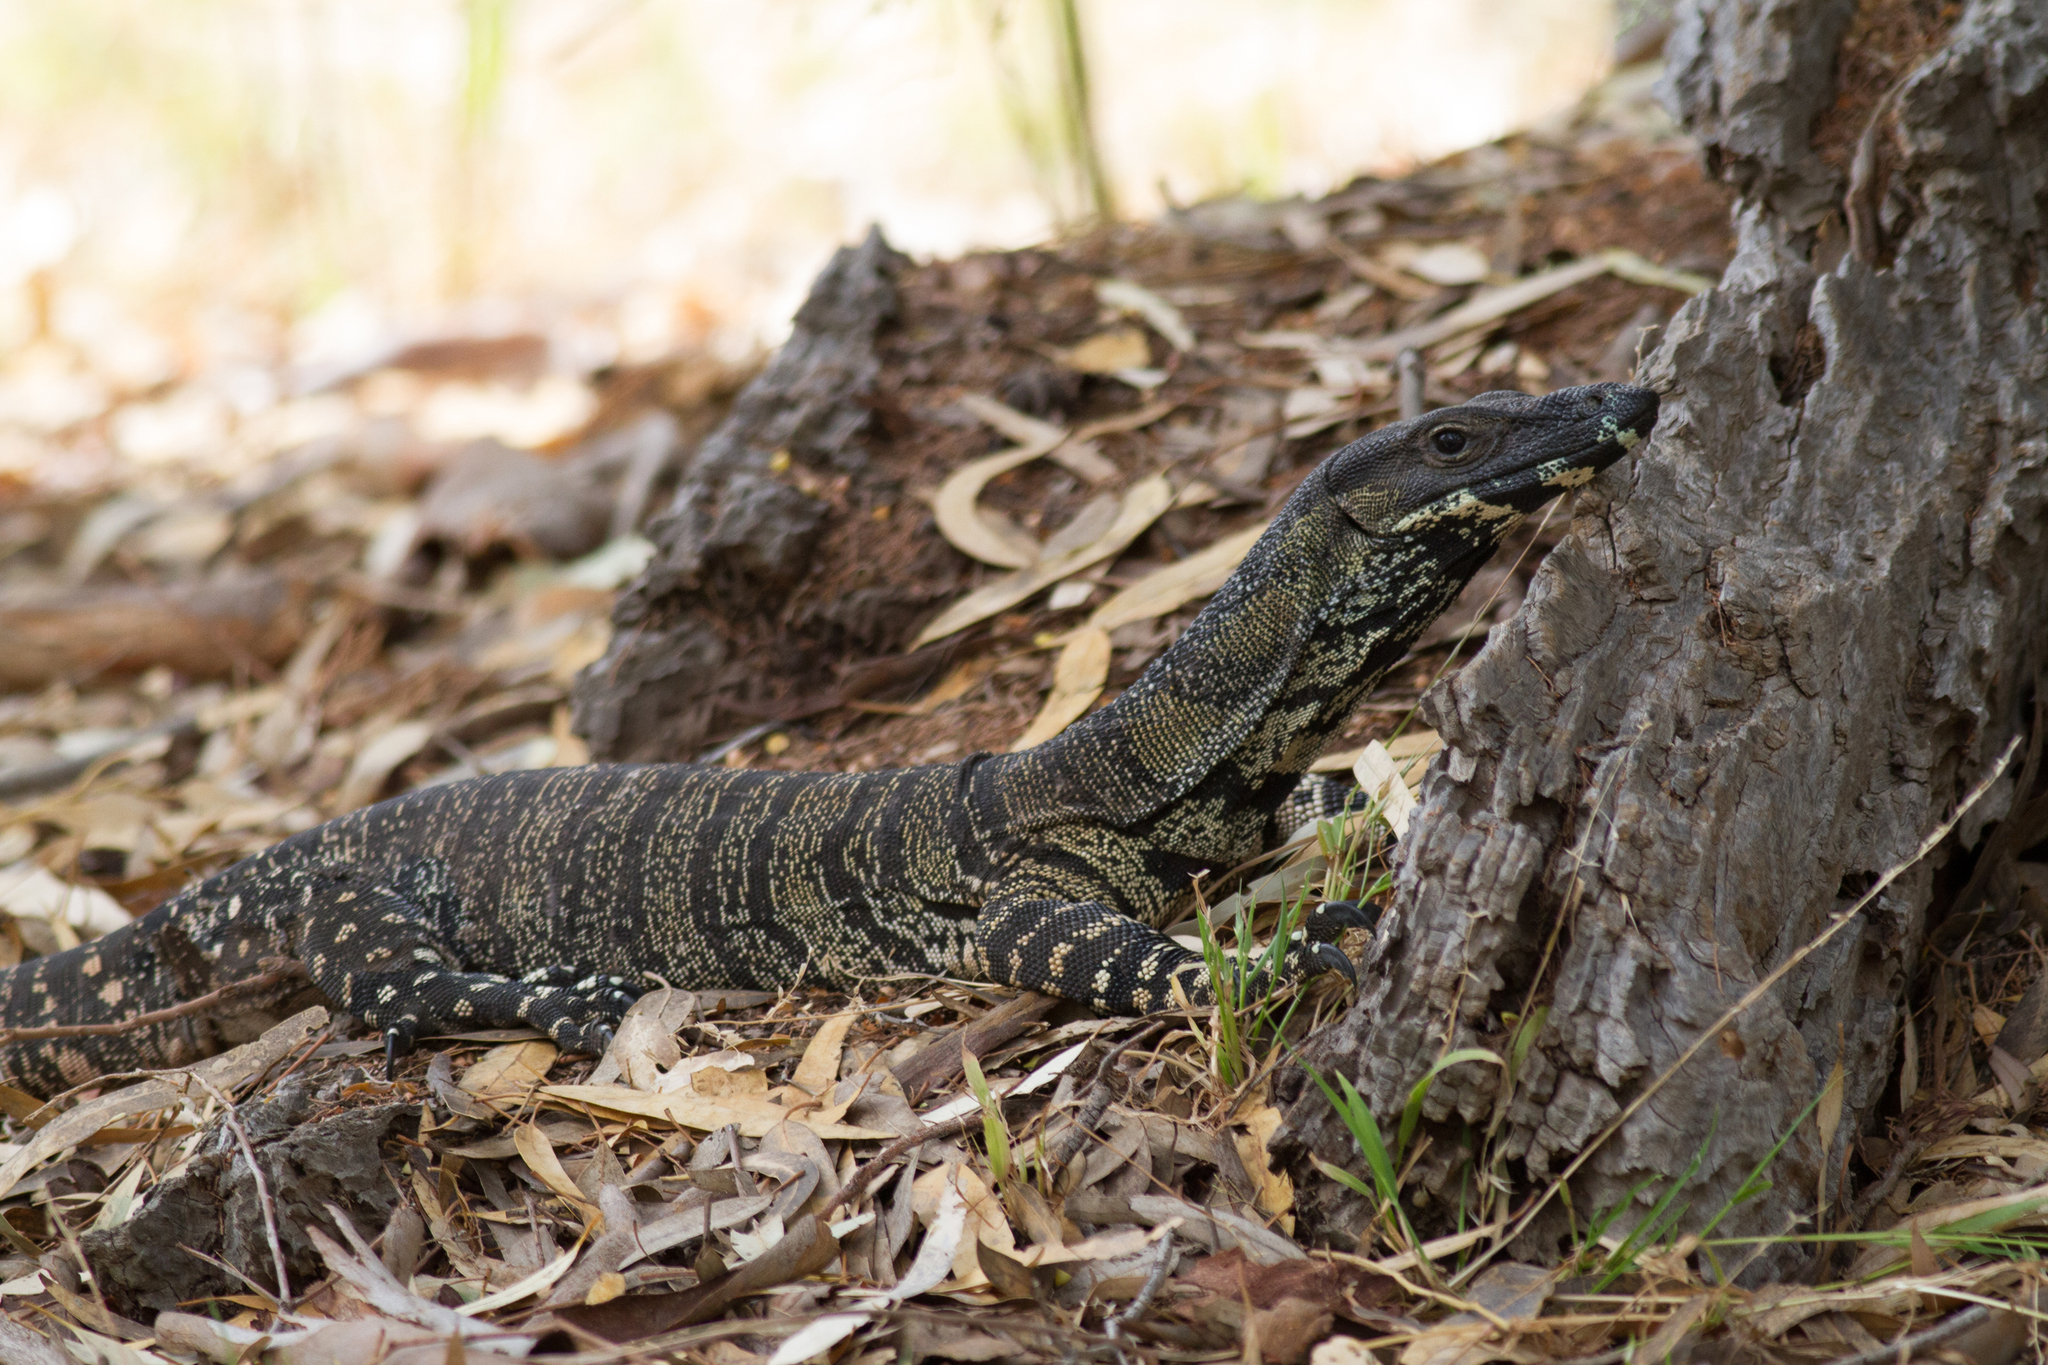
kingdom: Animalia
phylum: Chordata
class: Squamata
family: Varanidae
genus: Varanus
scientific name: Varanus varius
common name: Lace monitor
